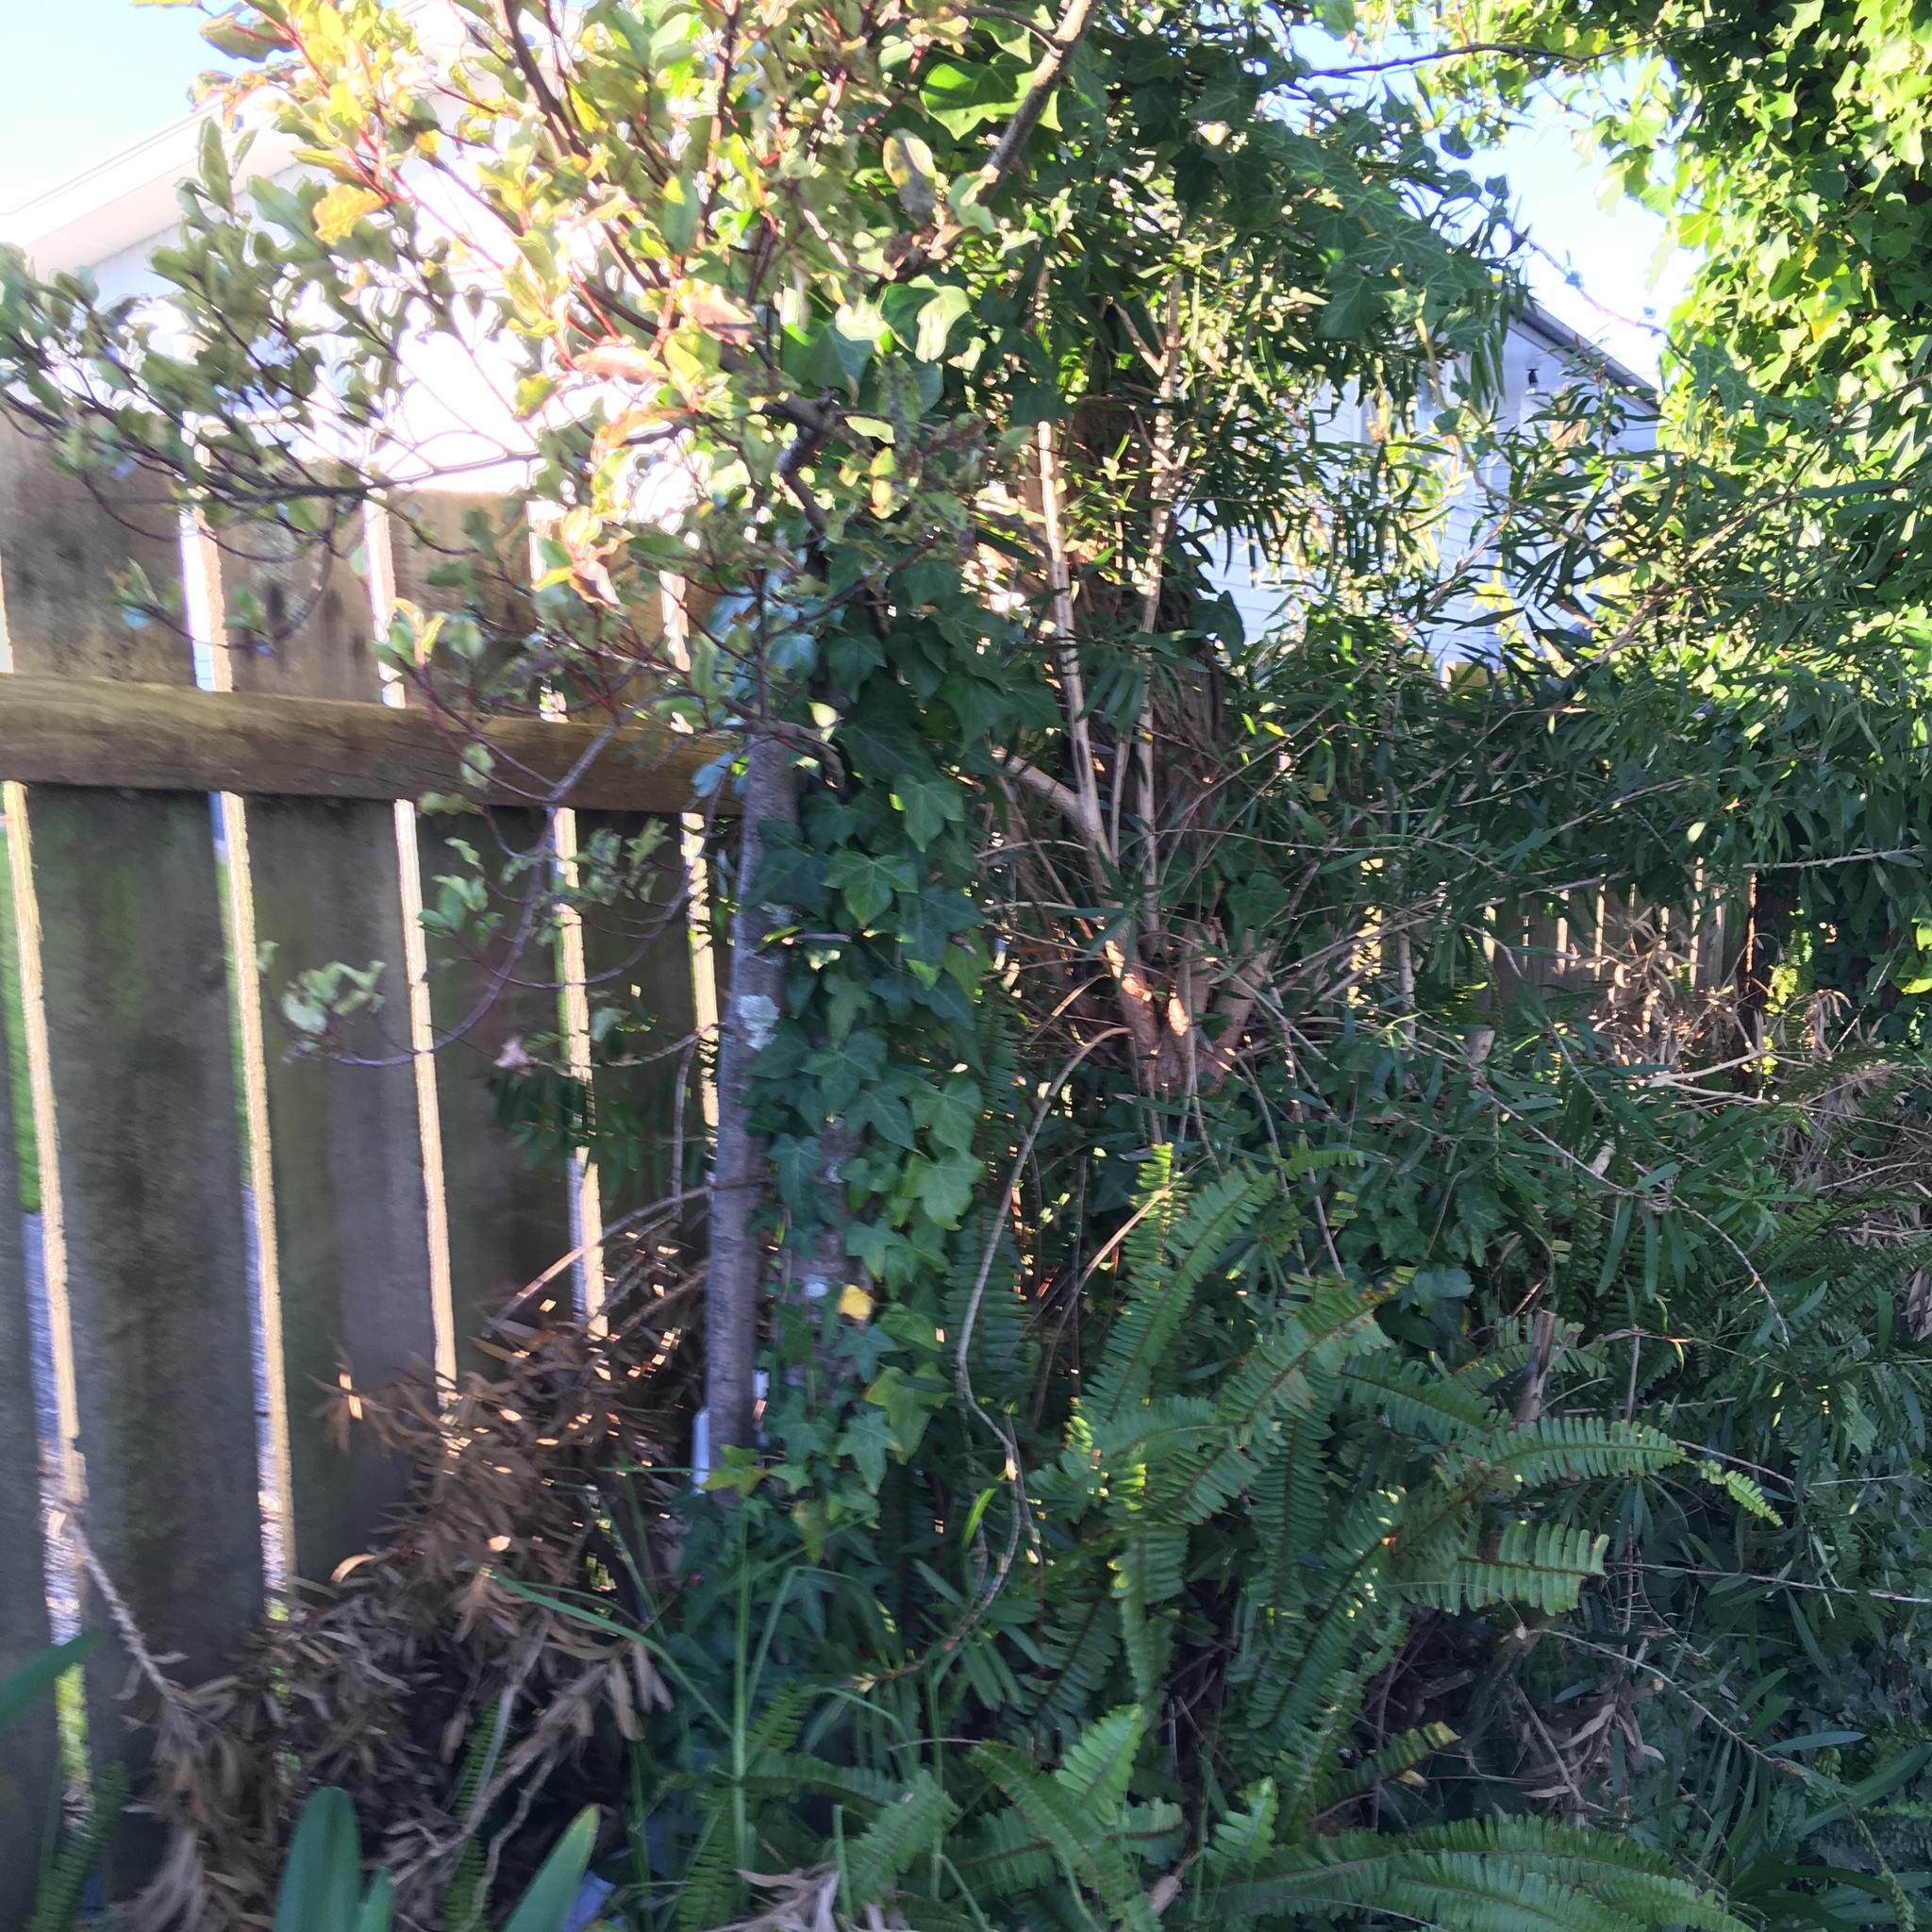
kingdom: Plantae
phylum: Tracheophyta
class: Magnoliopsida
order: Apiales
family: Araliaceae
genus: Hedera
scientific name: Hedera helix
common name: Ivy
